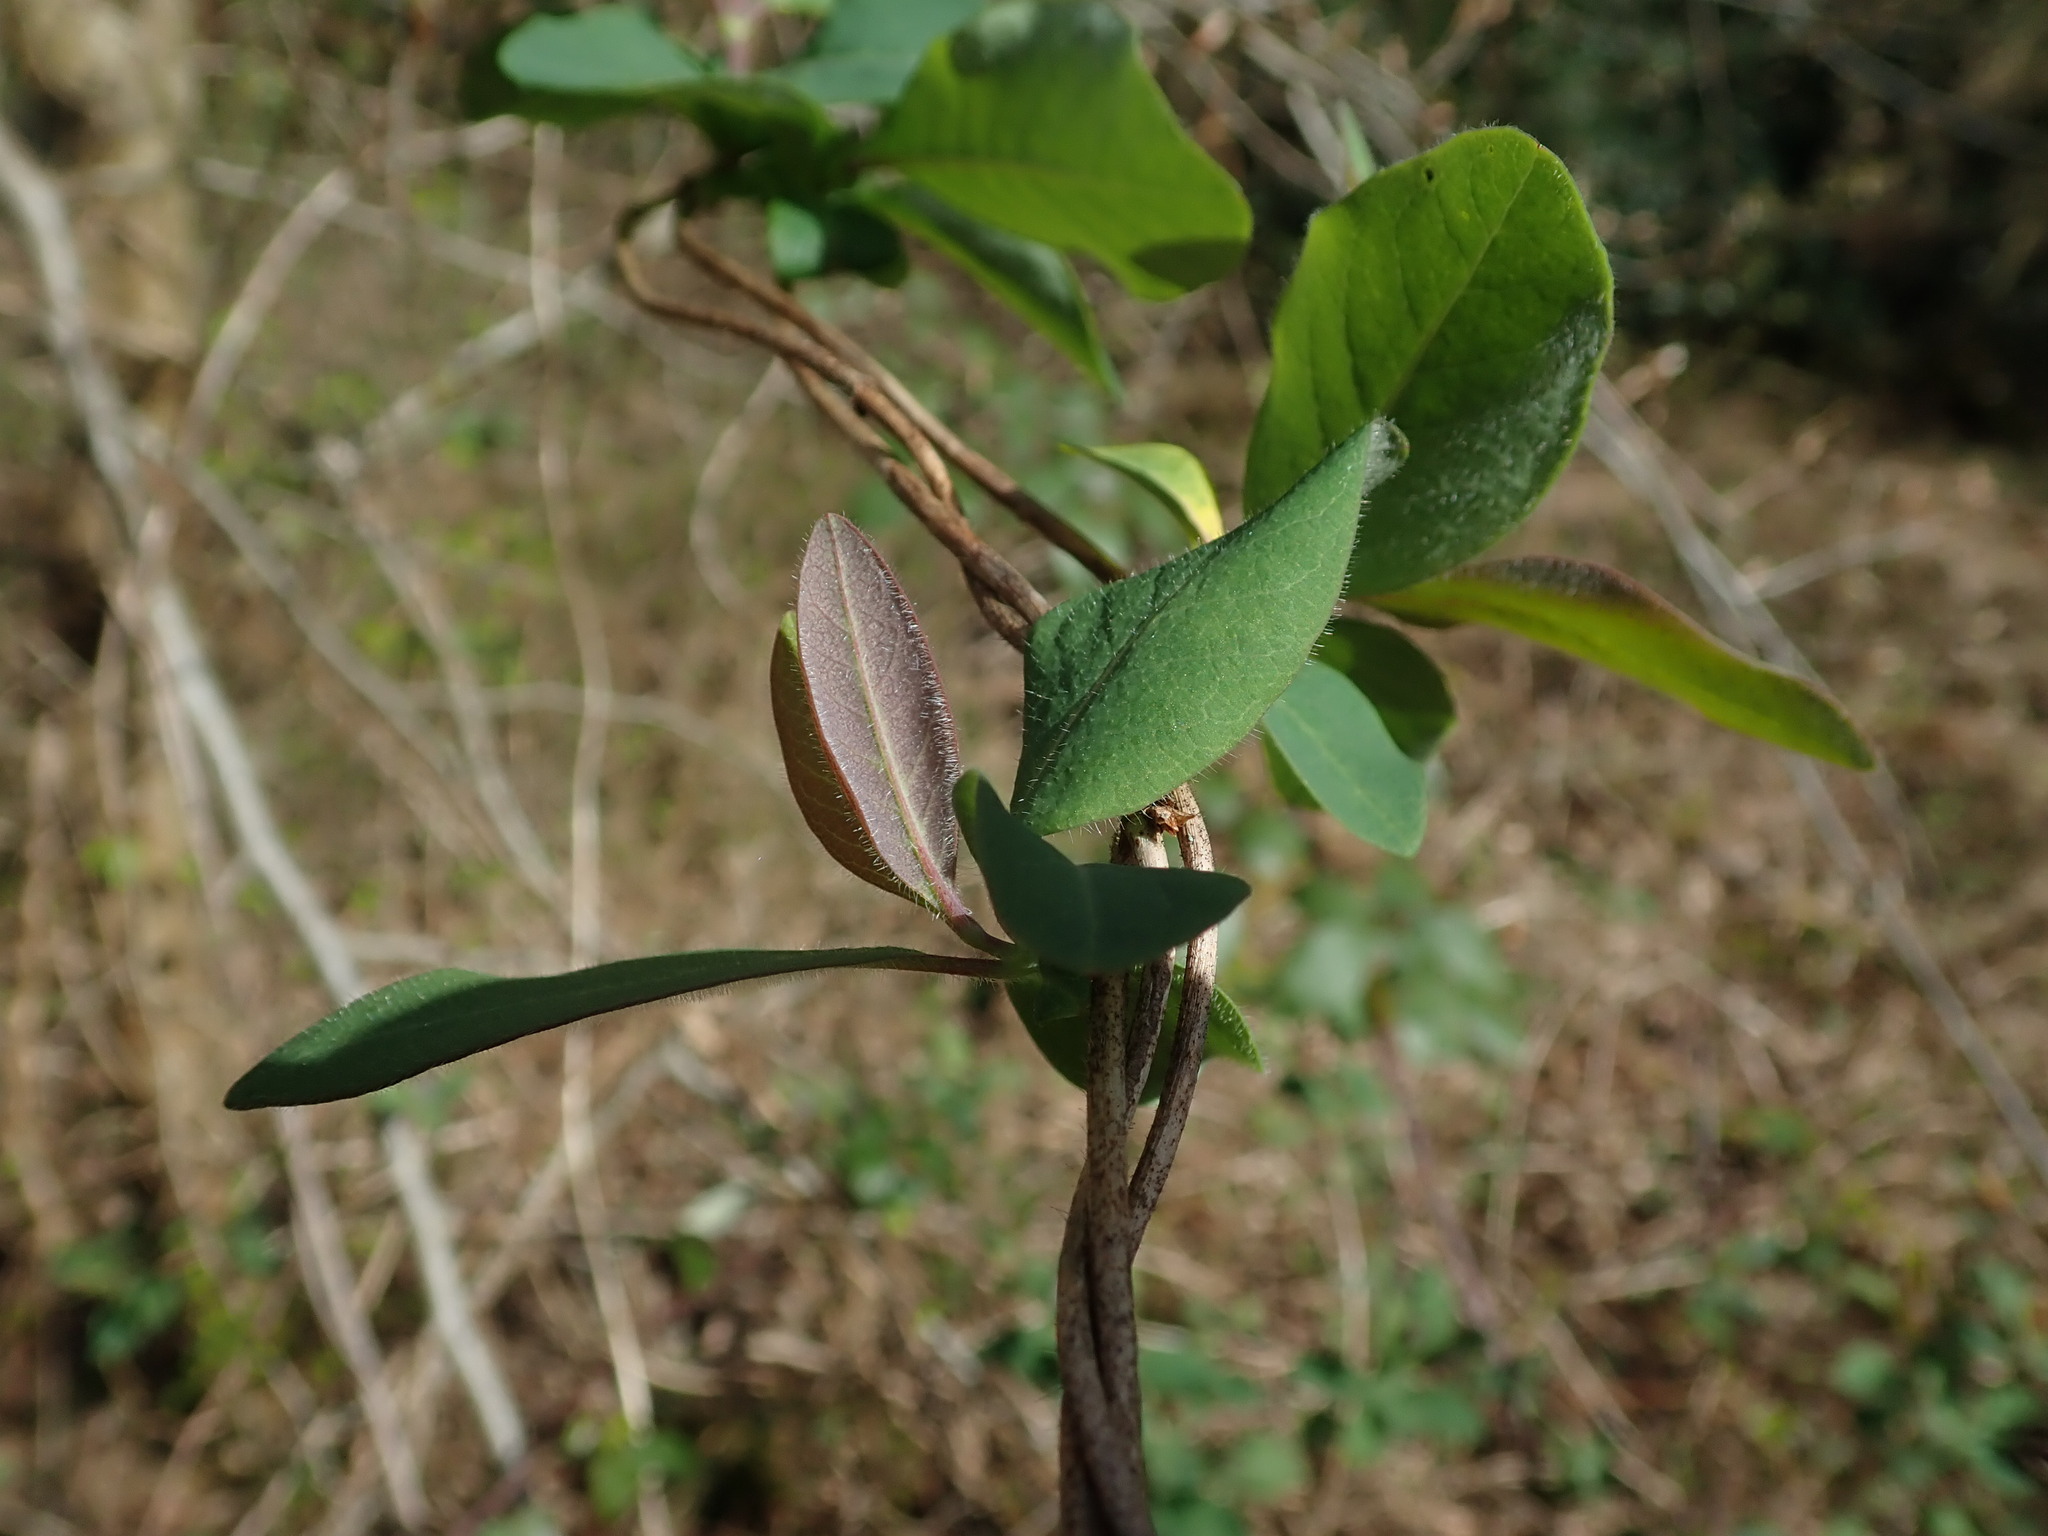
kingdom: Plantae
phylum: Tracheophyta
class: Magnoliopsida
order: Dipsacales
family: Caprifoliaceae
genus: Lonicera
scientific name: Lonicera periclymenum
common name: European honeysuckle
